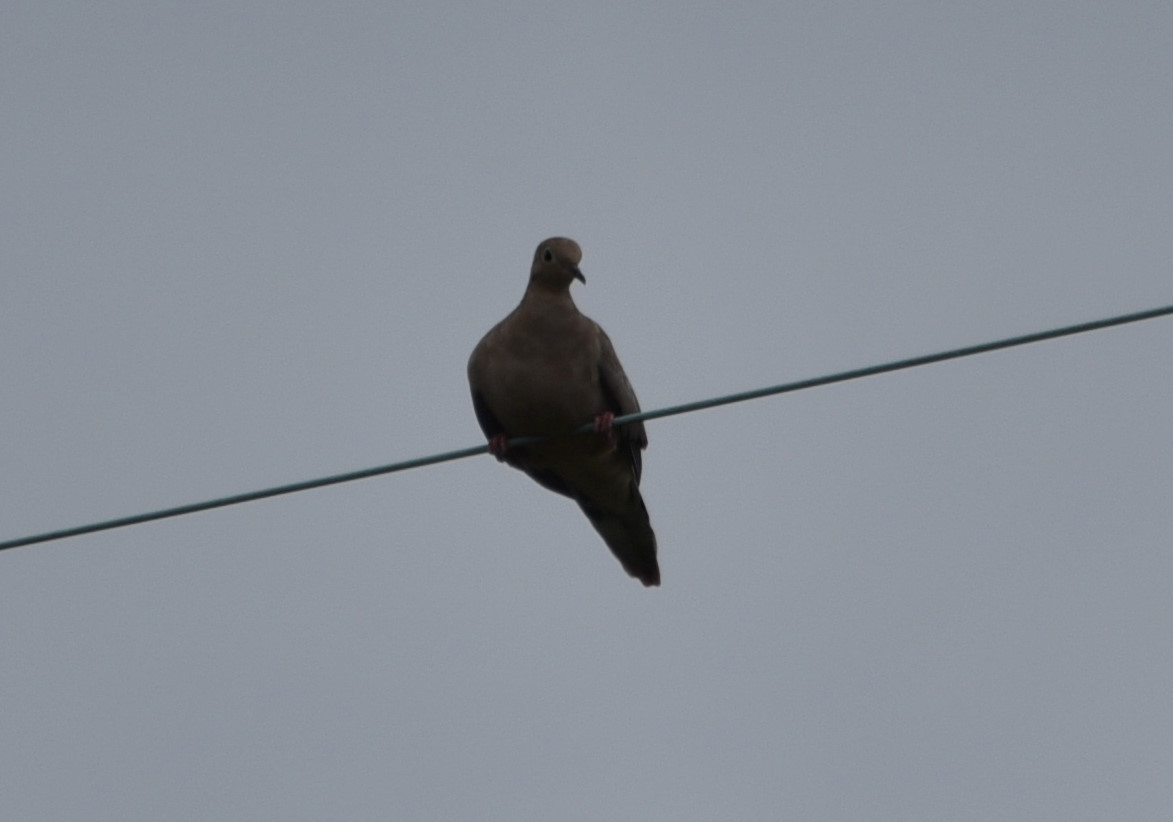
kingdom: Animalia
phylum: Chordata
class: Aves
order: Columbiformes
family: Columbidae
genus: Zenaida
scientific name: Zenaida macroura
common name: Mourning dove
